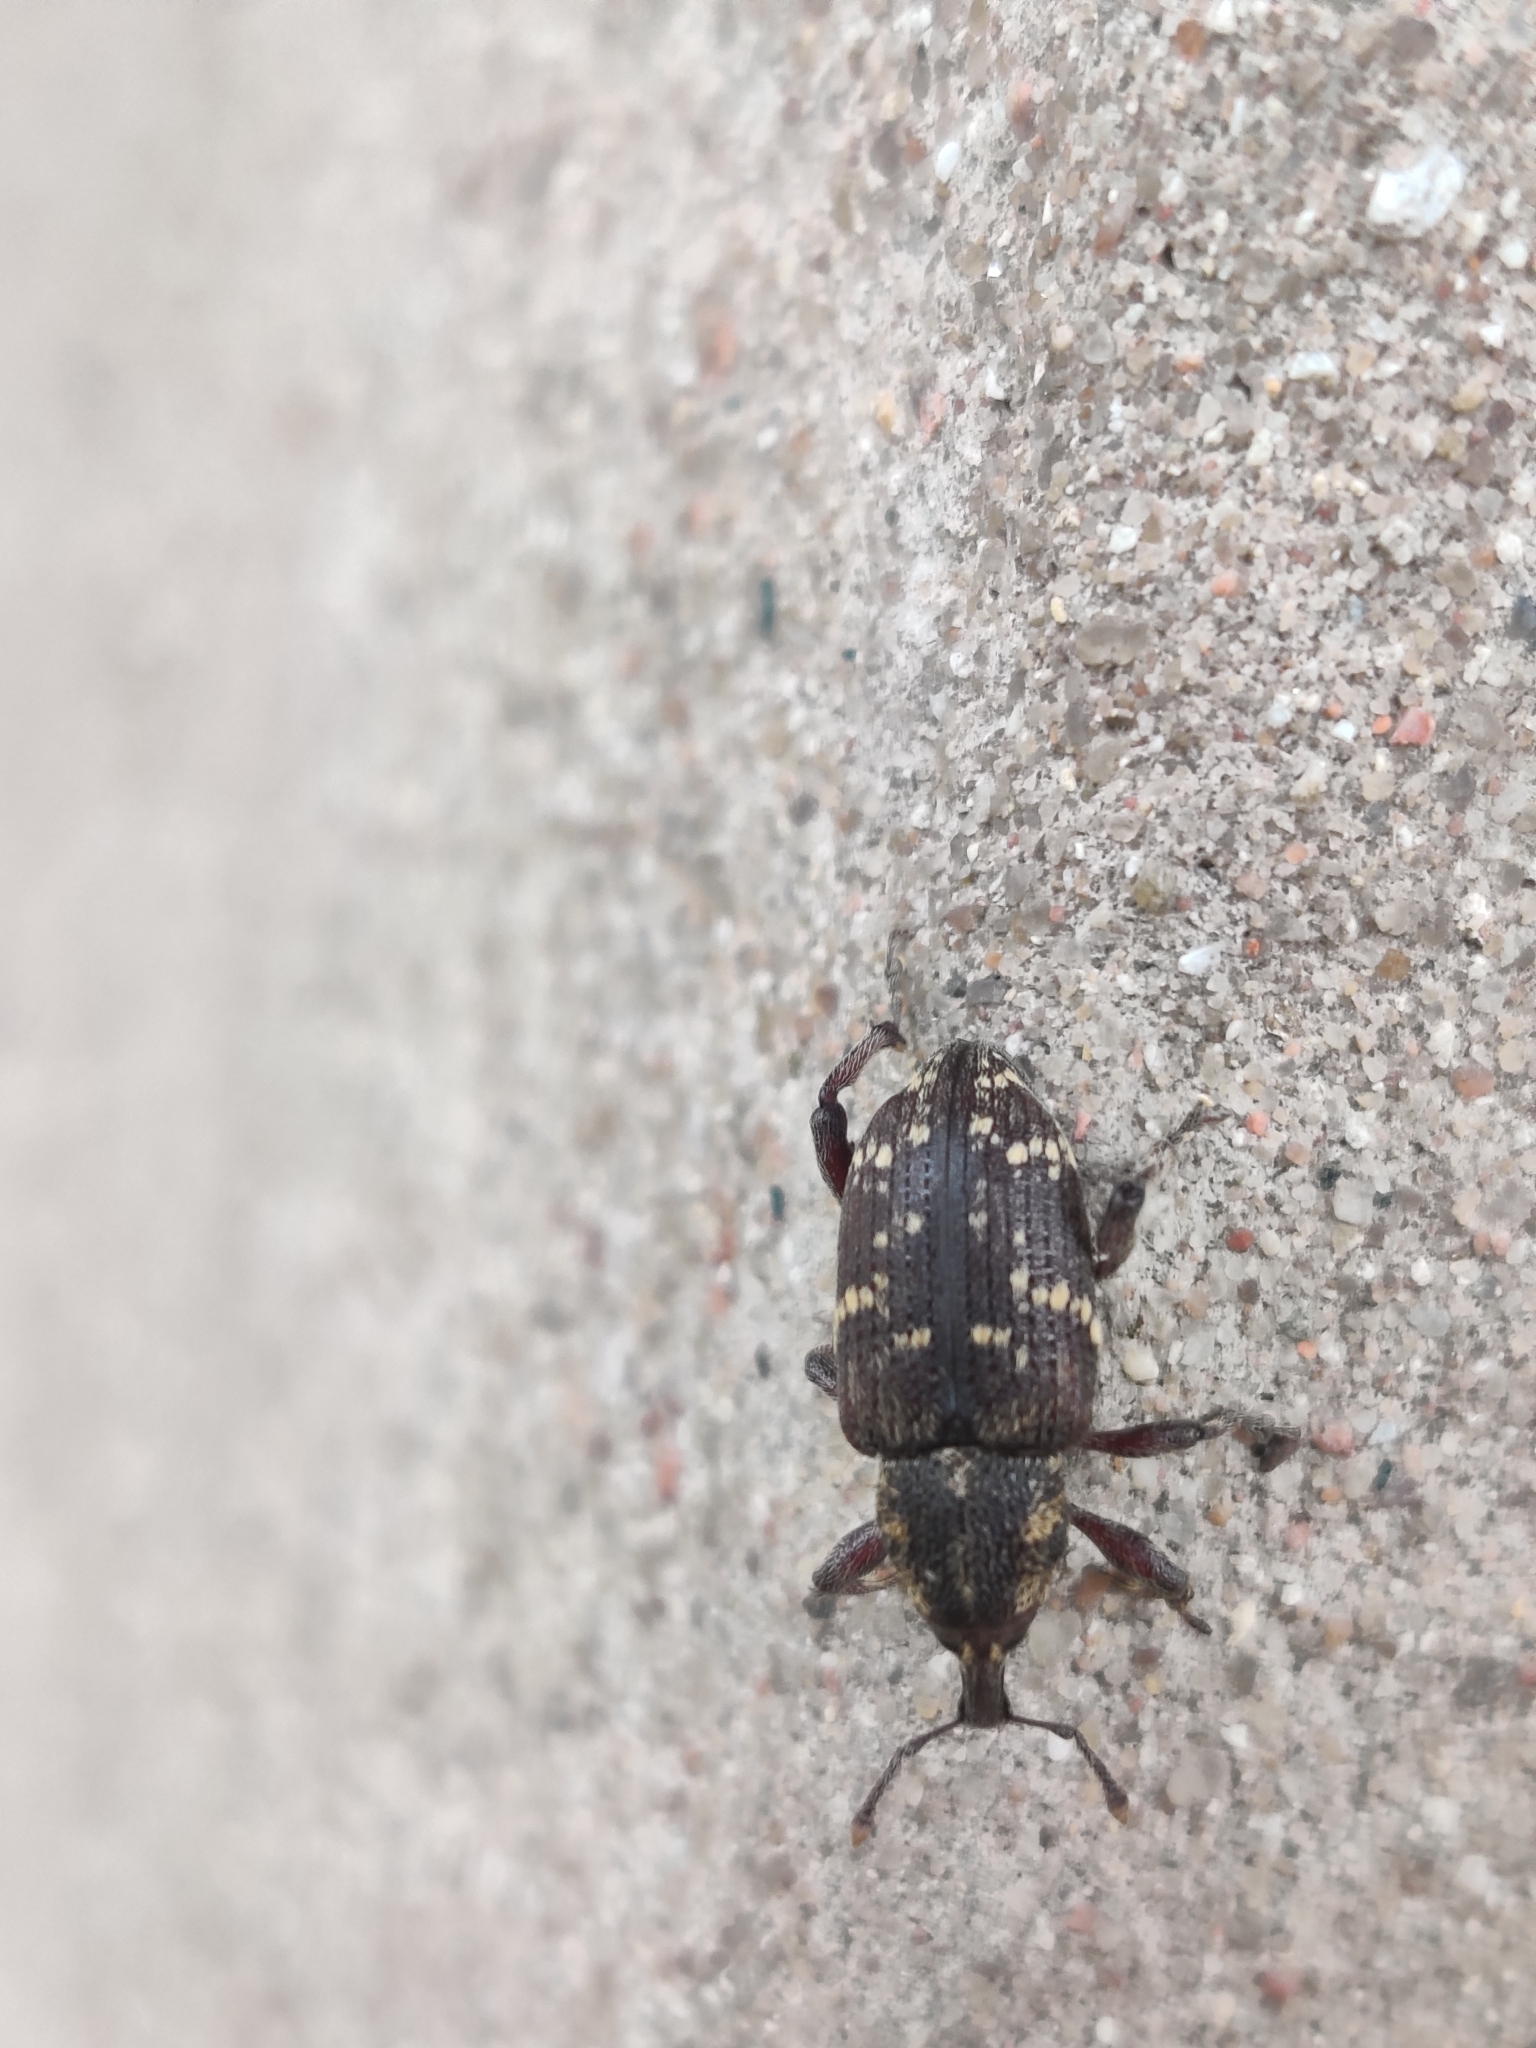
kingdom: Animalia
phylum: Arthropoda
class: Insecta
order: Coleoptera
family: Curculionidae
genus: Hylobius
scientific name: Hylobius abietis
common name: Large pine weevil
